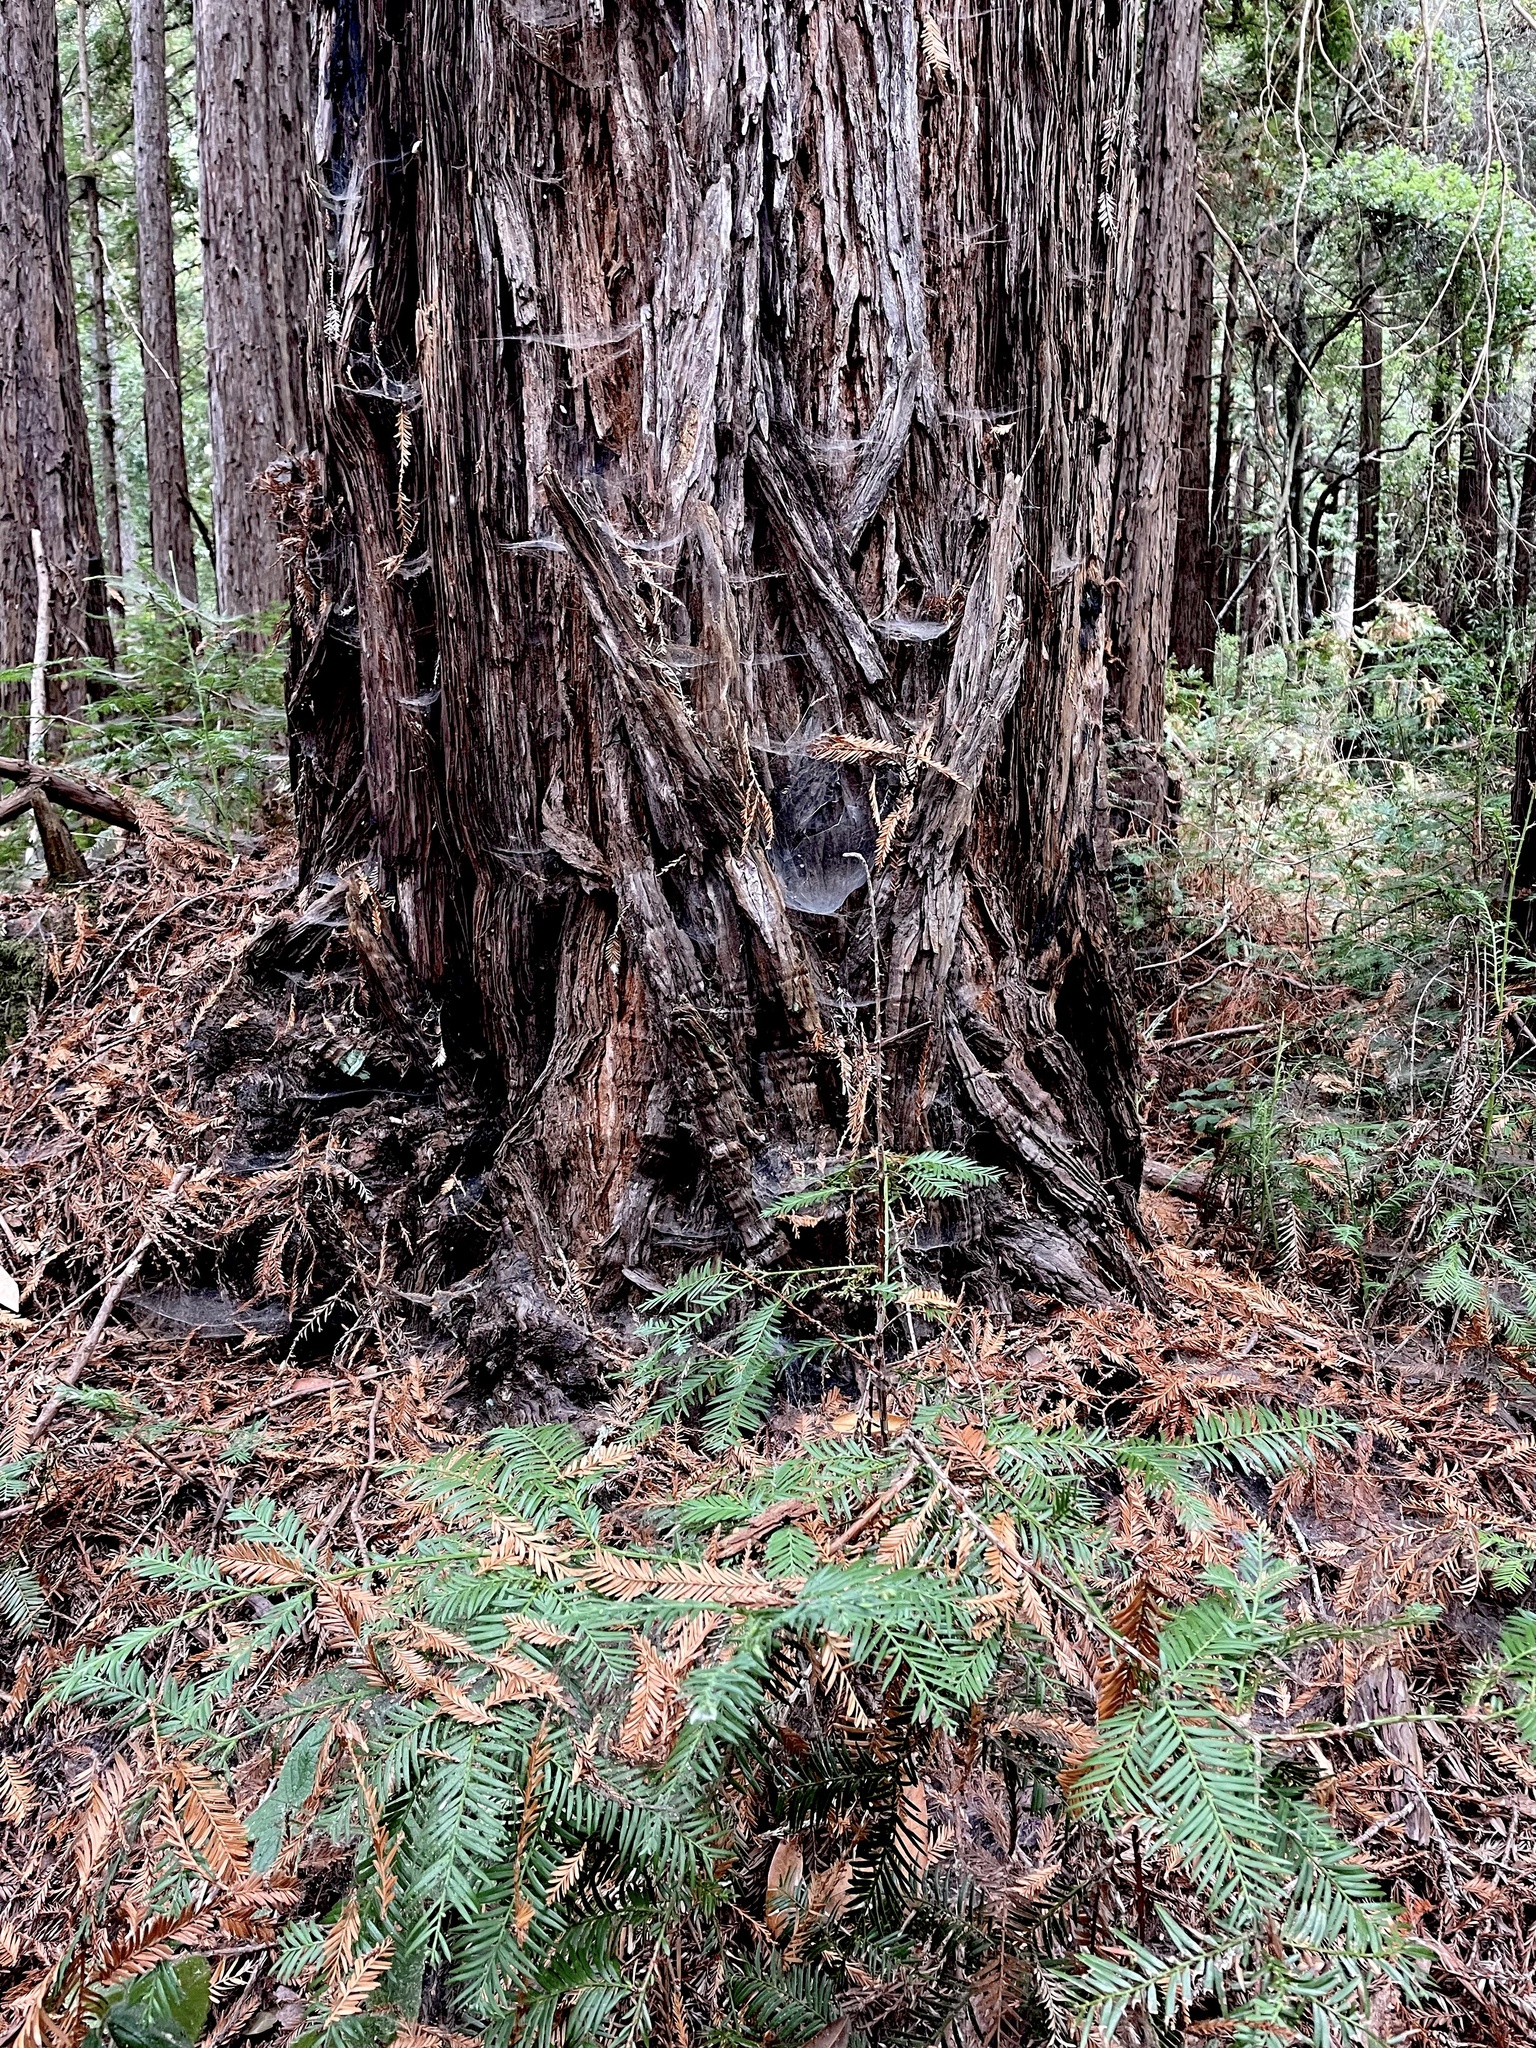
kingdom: Plantae
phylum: Tracheophyta
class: Pinopsida
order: Pinales
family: Cupressaceae
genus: Sequoia
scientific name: Sequoia sempervirens
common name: Coast redwood
